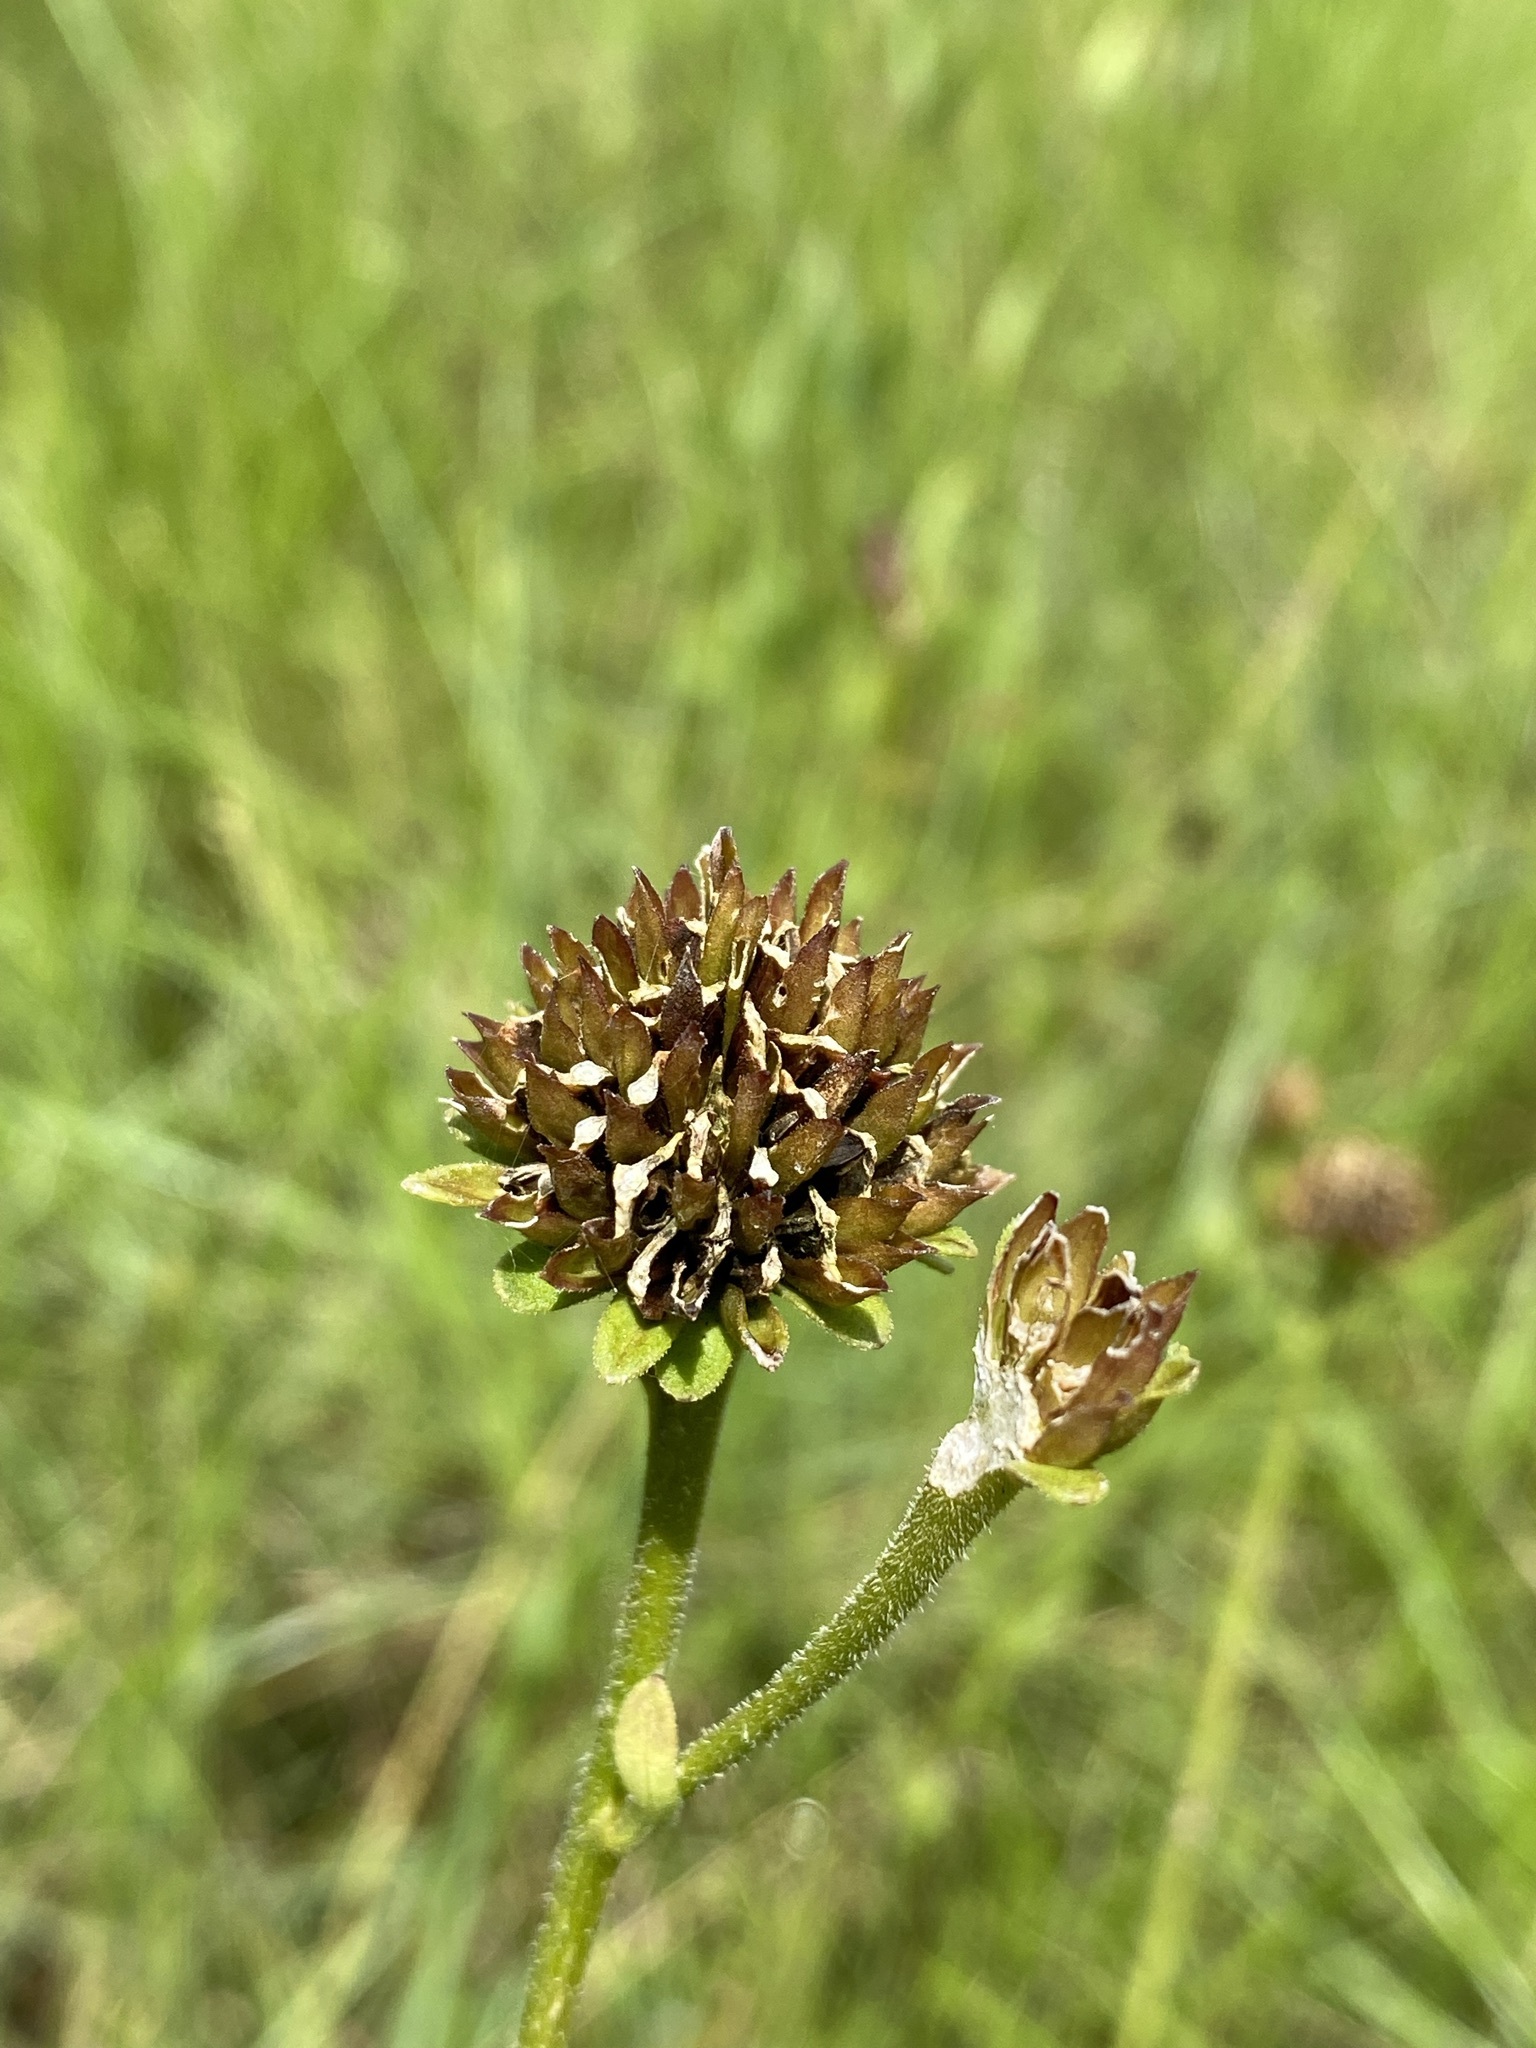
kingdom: Plantae
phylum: Tracheophyta
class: Magnoliopsida
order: Asterales
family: Asteraceae
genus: Verbesina
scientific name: Verbesina chapmanii
